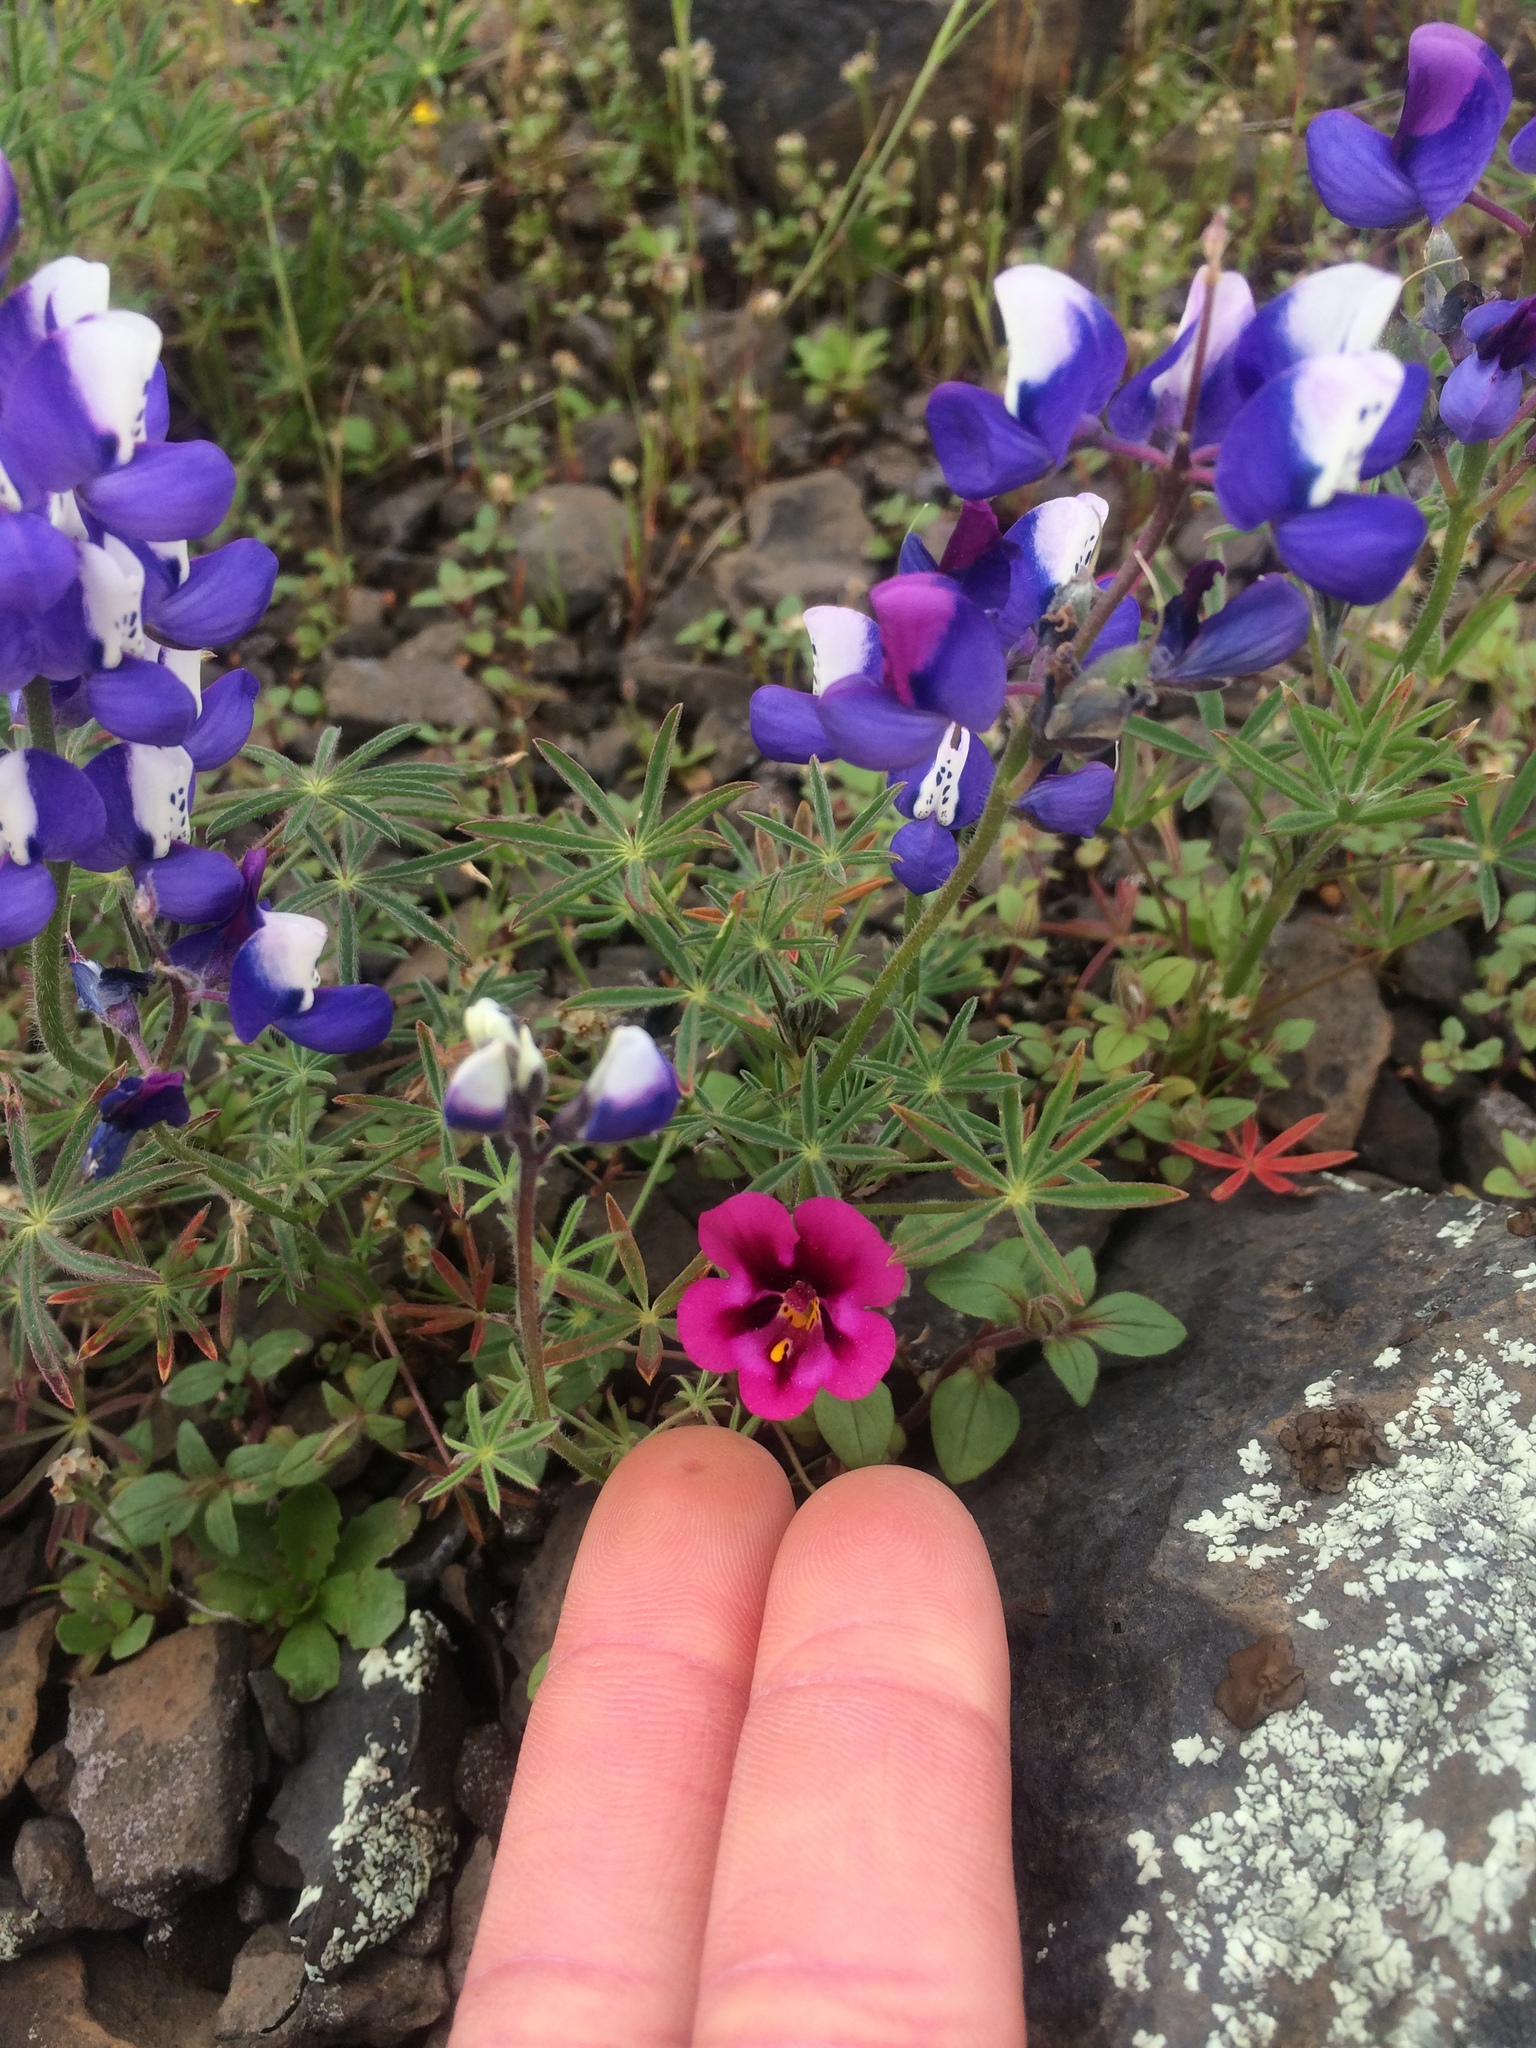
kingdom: Plantae
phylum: Tracheophyta
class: Magnoliopsida
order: Lamiales
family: Phrymaceae
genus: Diplacus
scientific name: Diplacus kelloggii
